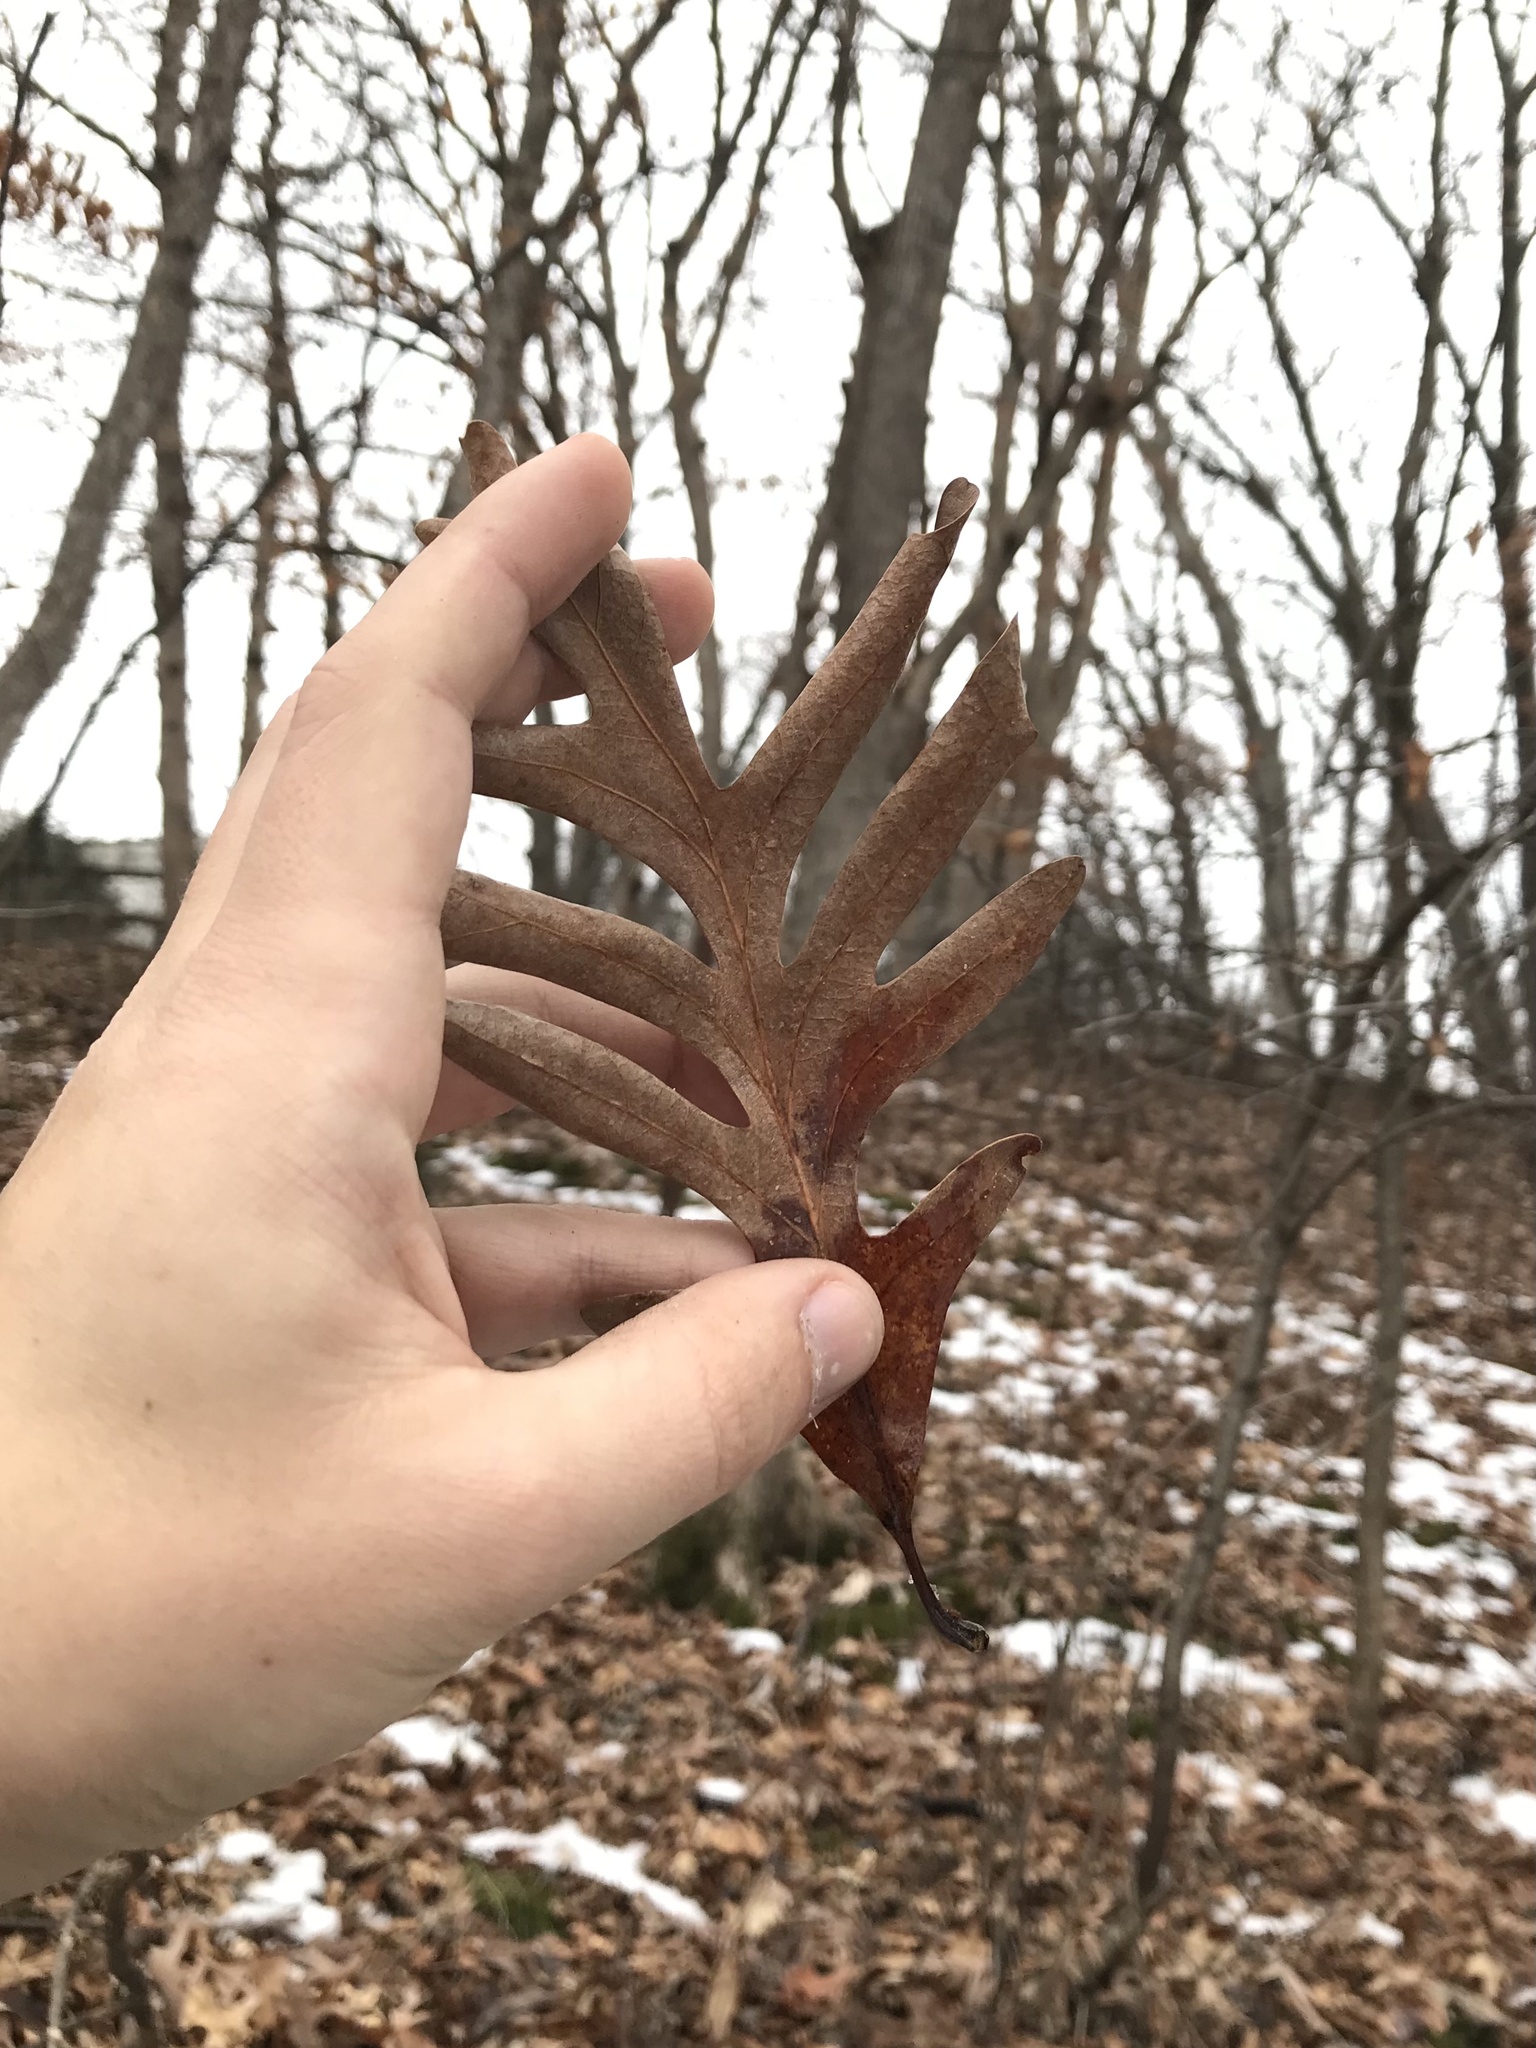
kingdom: Plantae
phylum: Tracheophyta
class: Magnoliopsida
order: Fagales
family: Fagaceae
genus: Quercus
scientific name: Quercus alba
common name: White oak
